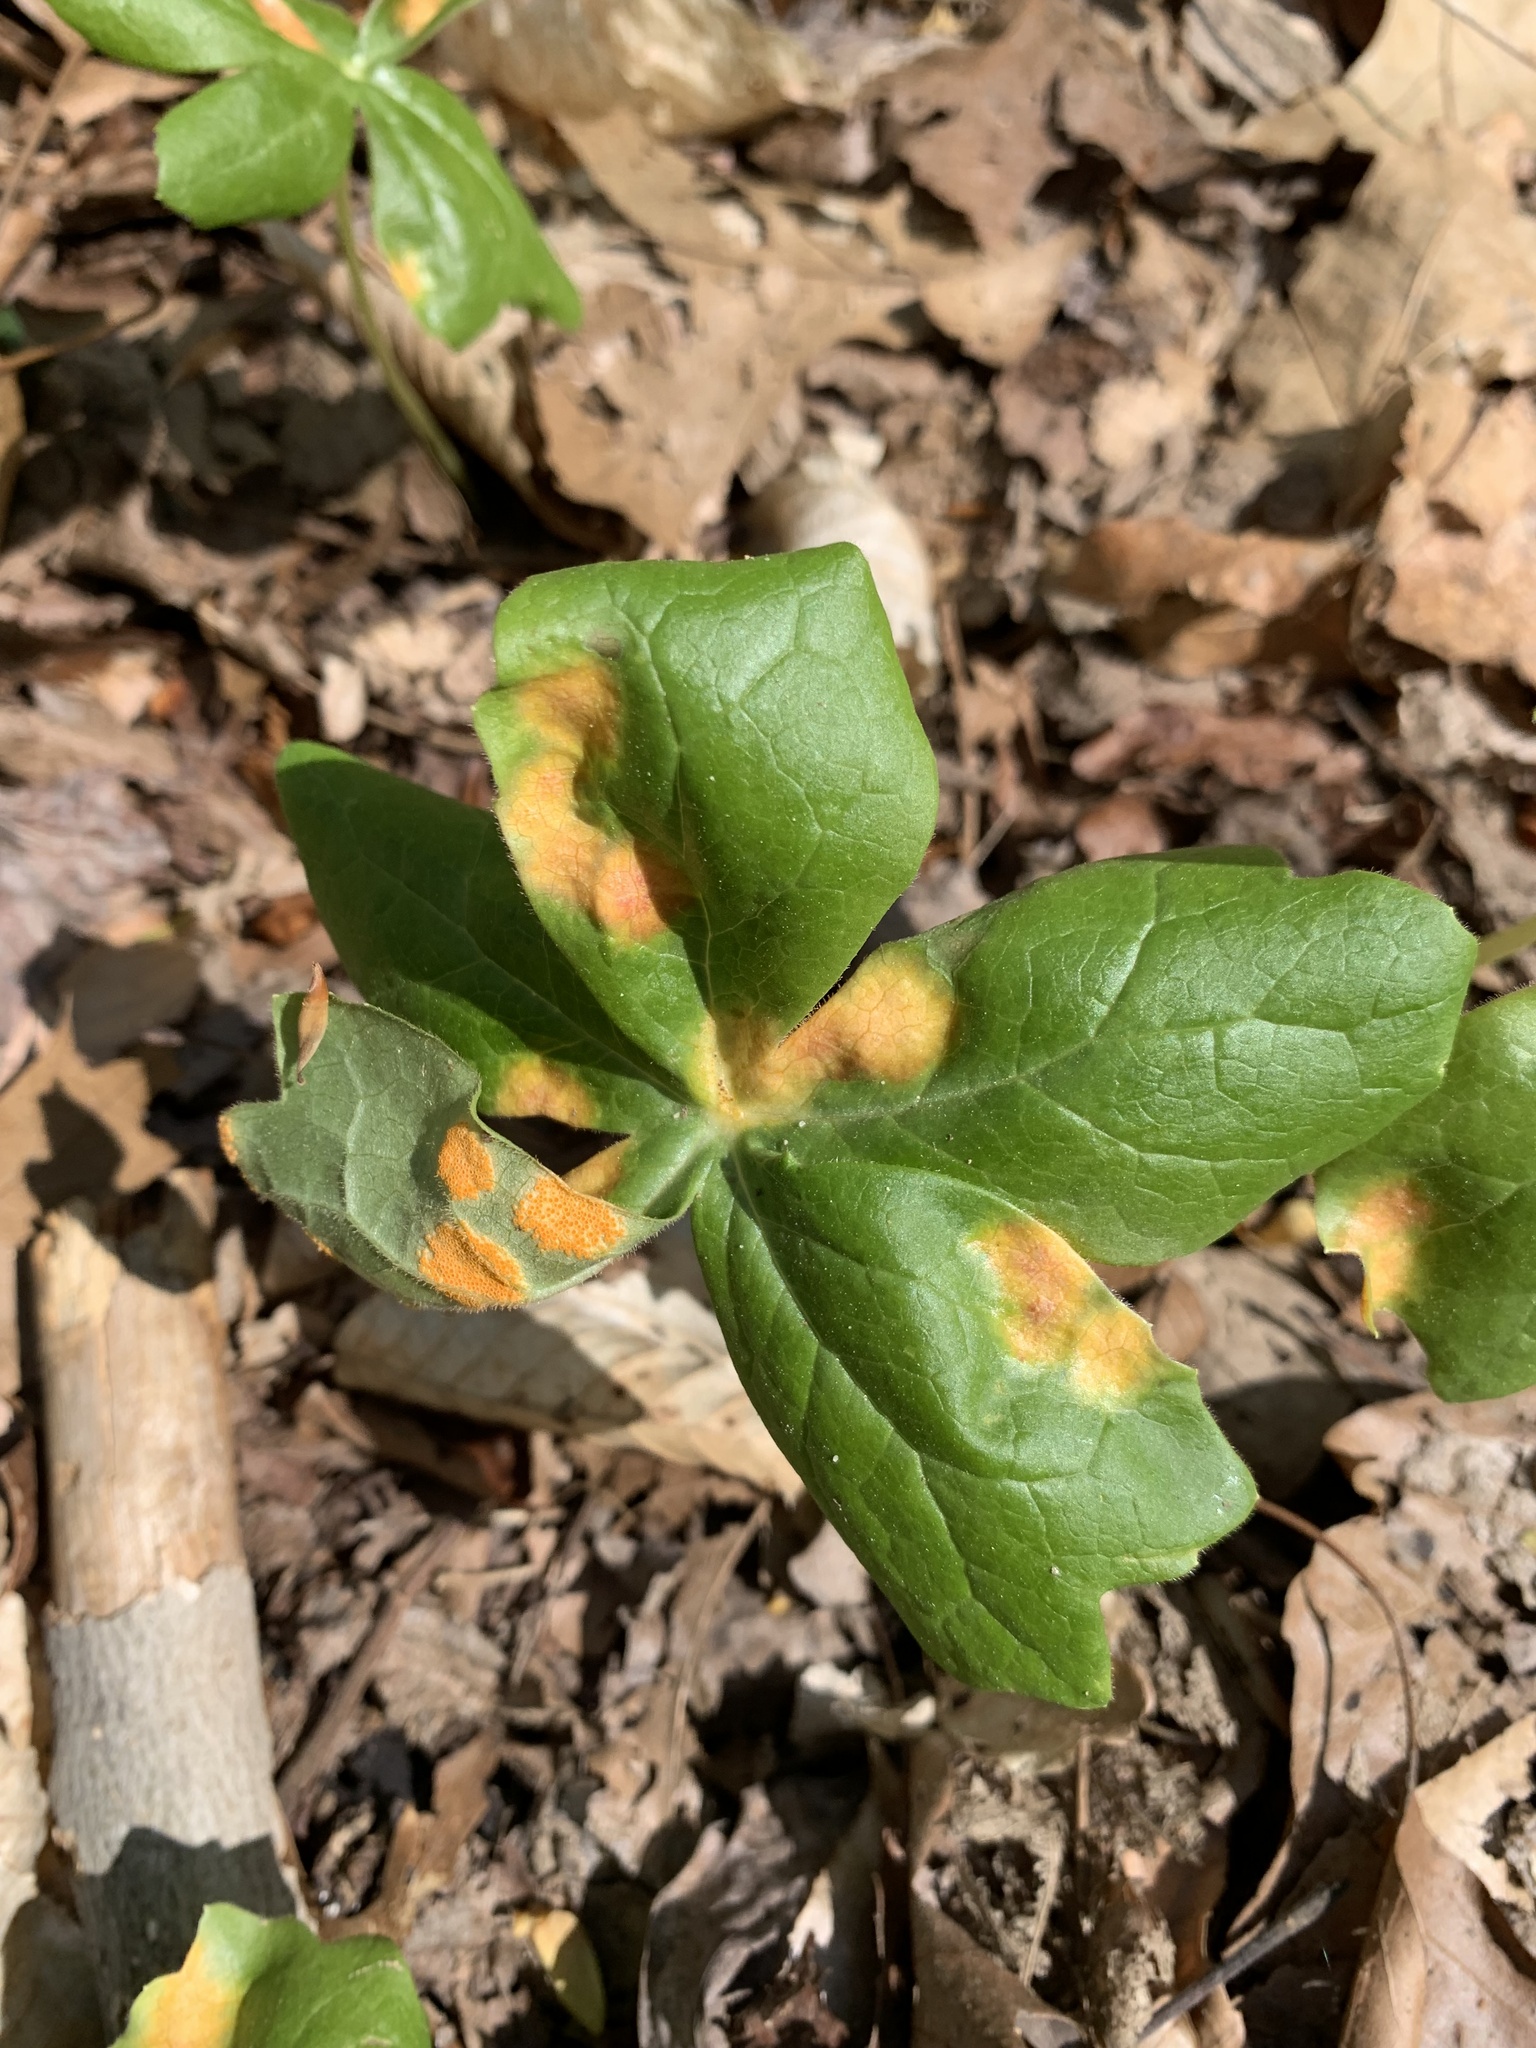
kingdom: Fungi
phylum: Basidiomycota
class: Pucciniomycetes
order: Pucciniales
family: Pucciniaceae
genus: Puccinia
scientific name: Puccinia podophylli
